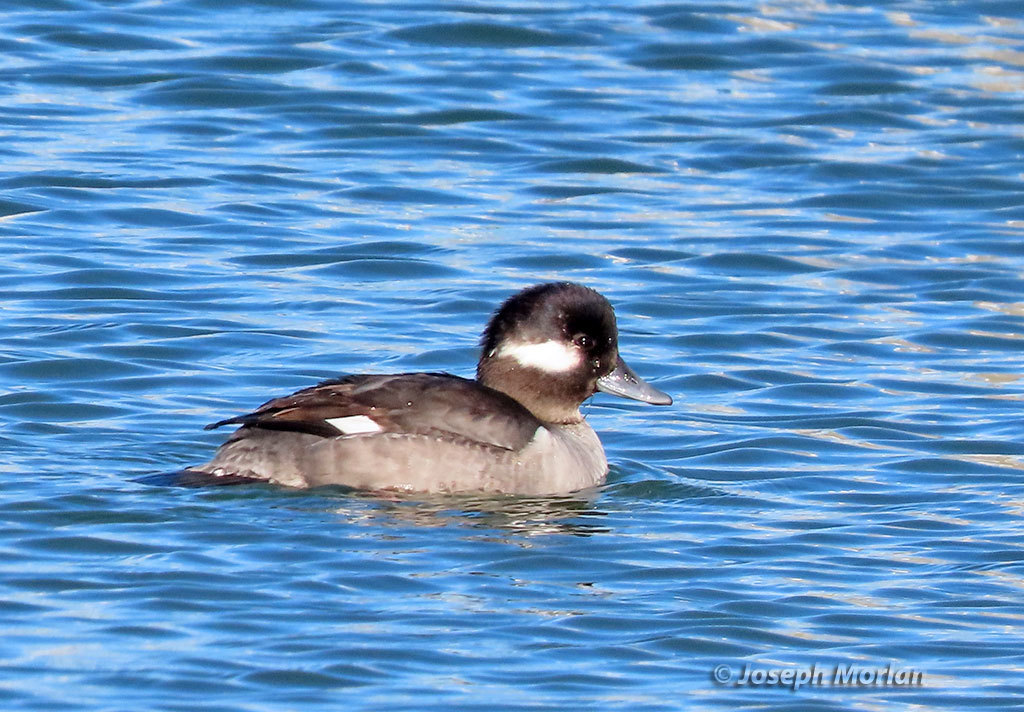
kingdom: Animalia
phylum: Chordata
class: Aves
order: Anseriformes
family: Anatidae
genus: Bucephala
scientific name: Bucephala albeola
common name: Bufflehead
